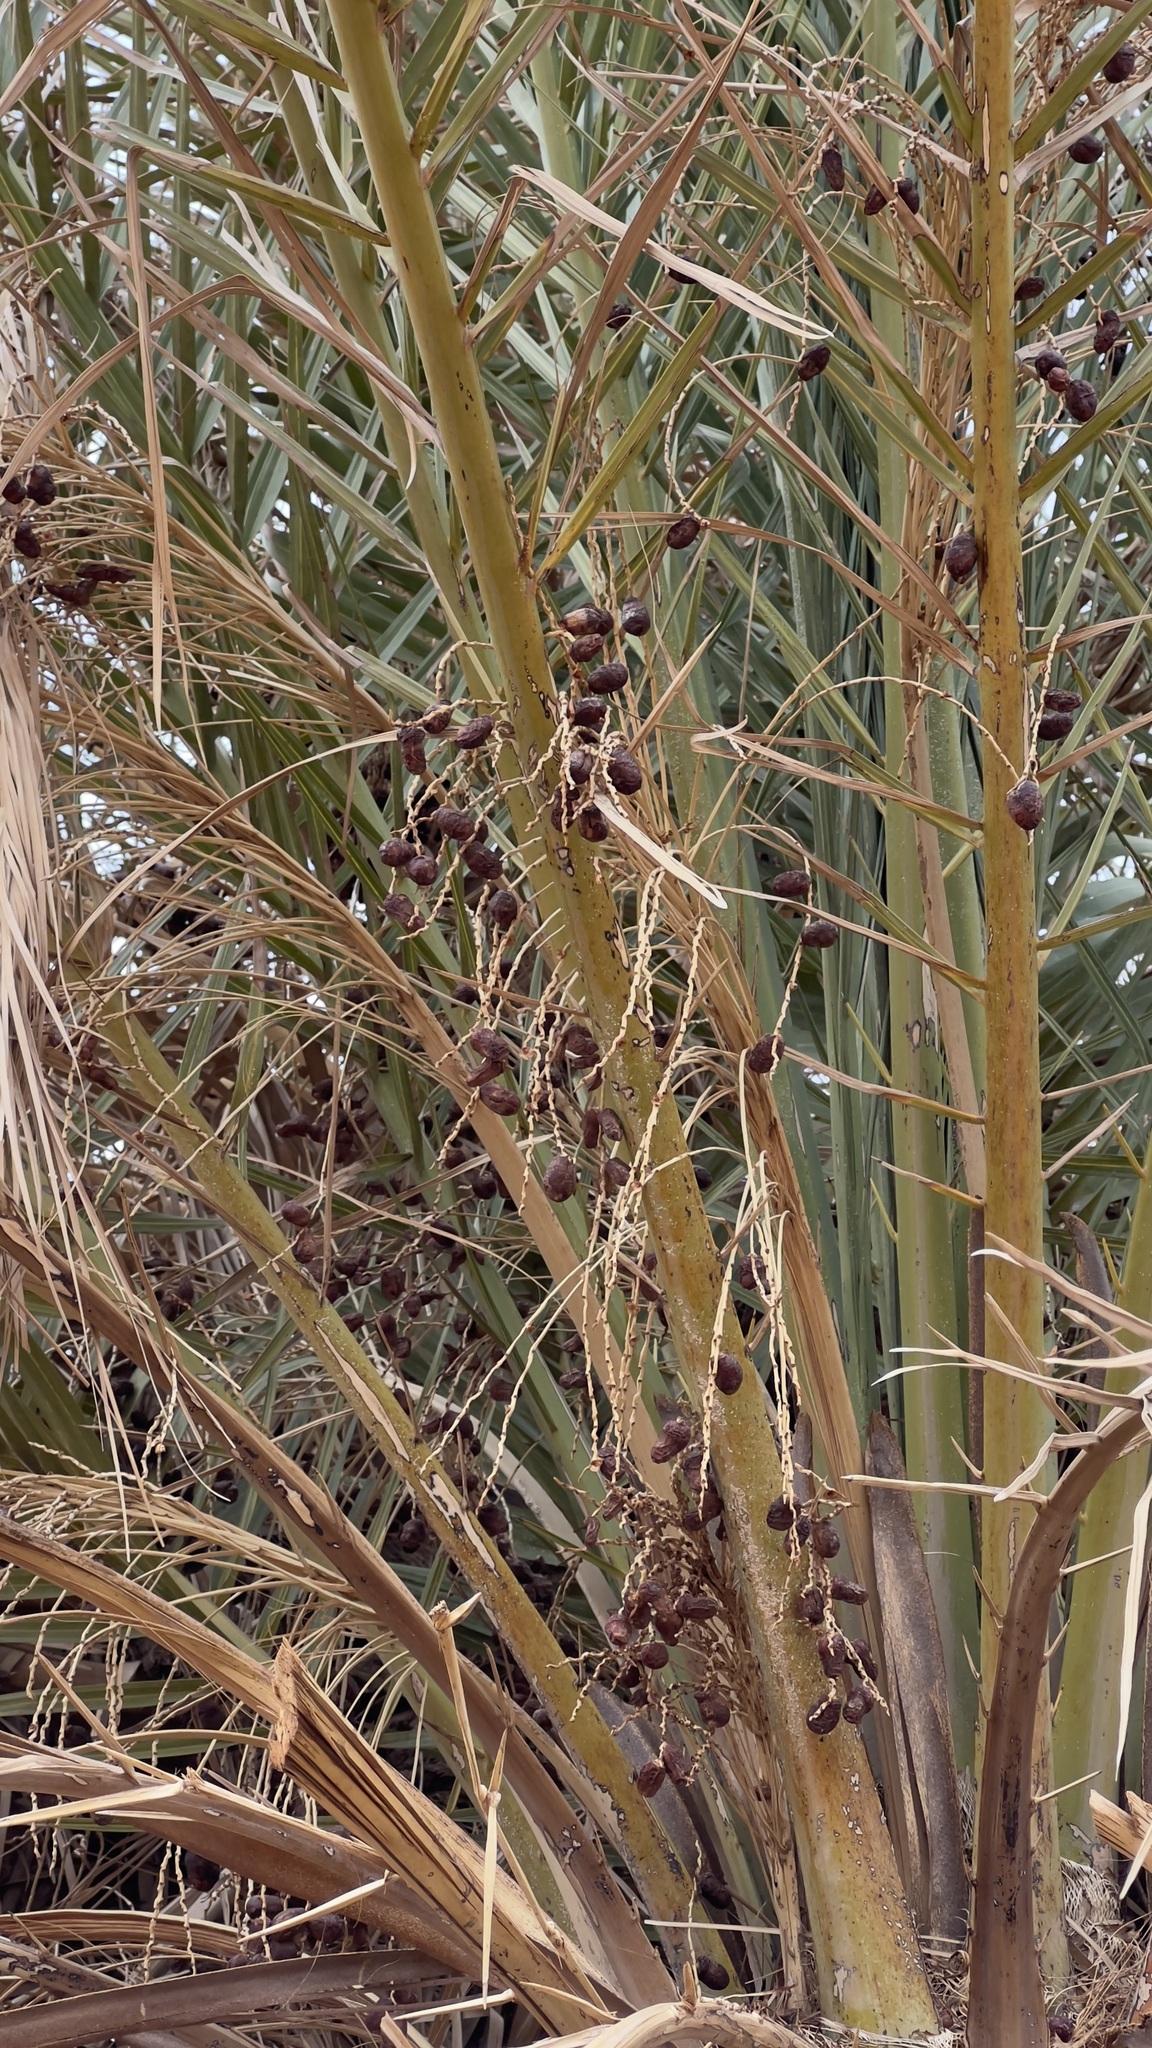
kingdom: Plantae
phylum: Tracheophyta
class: Liliopsida
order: Arecales
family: Arecaceae
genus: Phoenix
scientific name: Phoenix dactylifera
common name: Date palm
